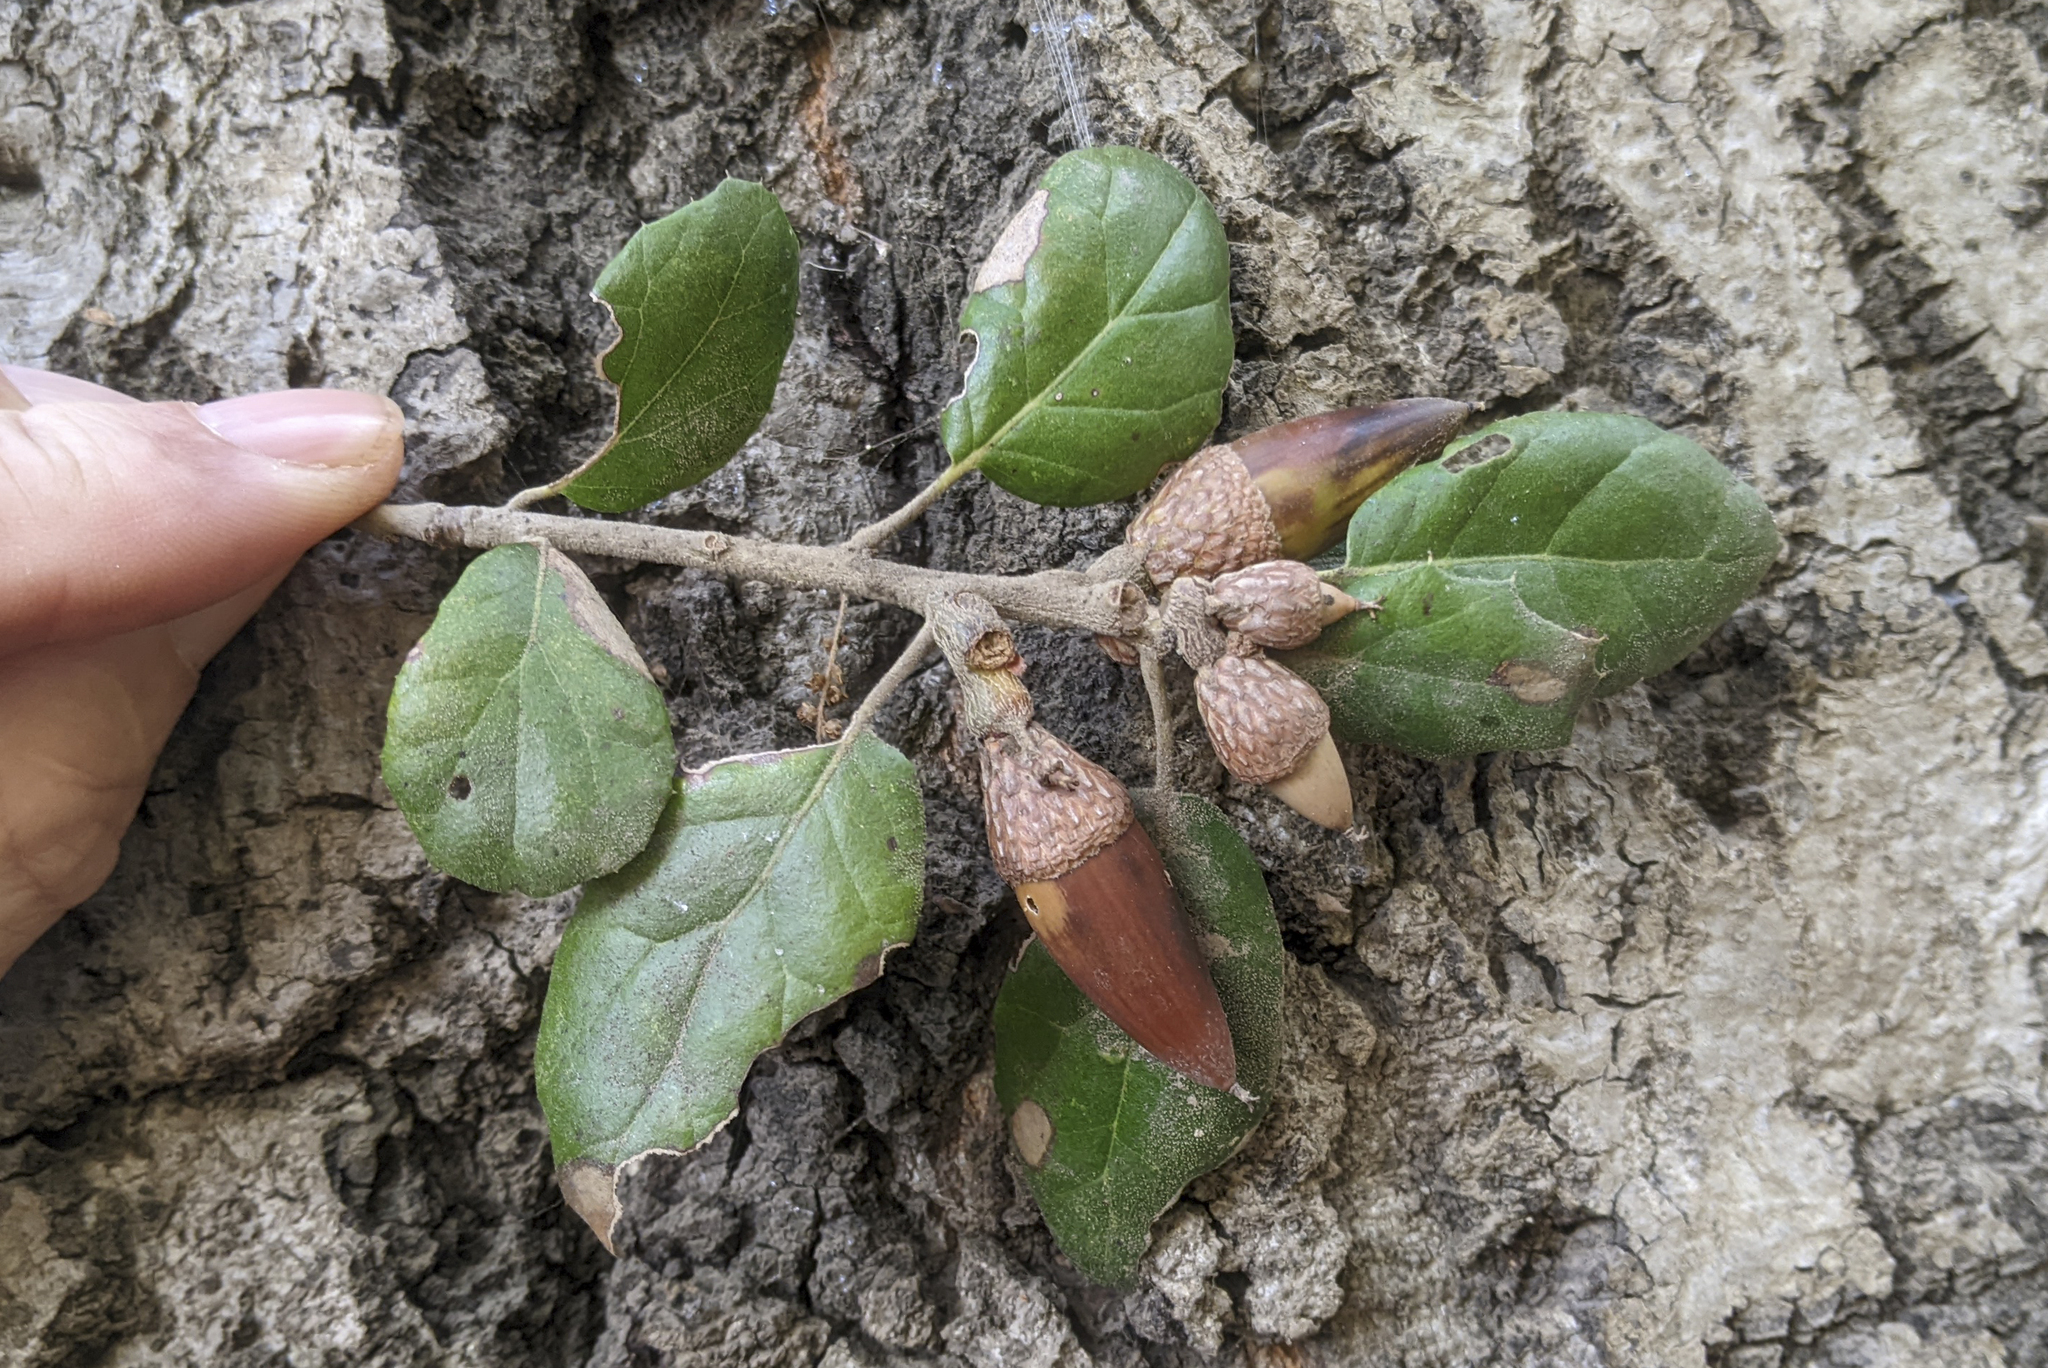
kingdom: Plantae
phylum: Tracheophyta
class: Magnoliopsida
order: Fagales
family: Fagaceae
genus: Quercus
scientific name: Quercus agrifolia
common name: California live oak
